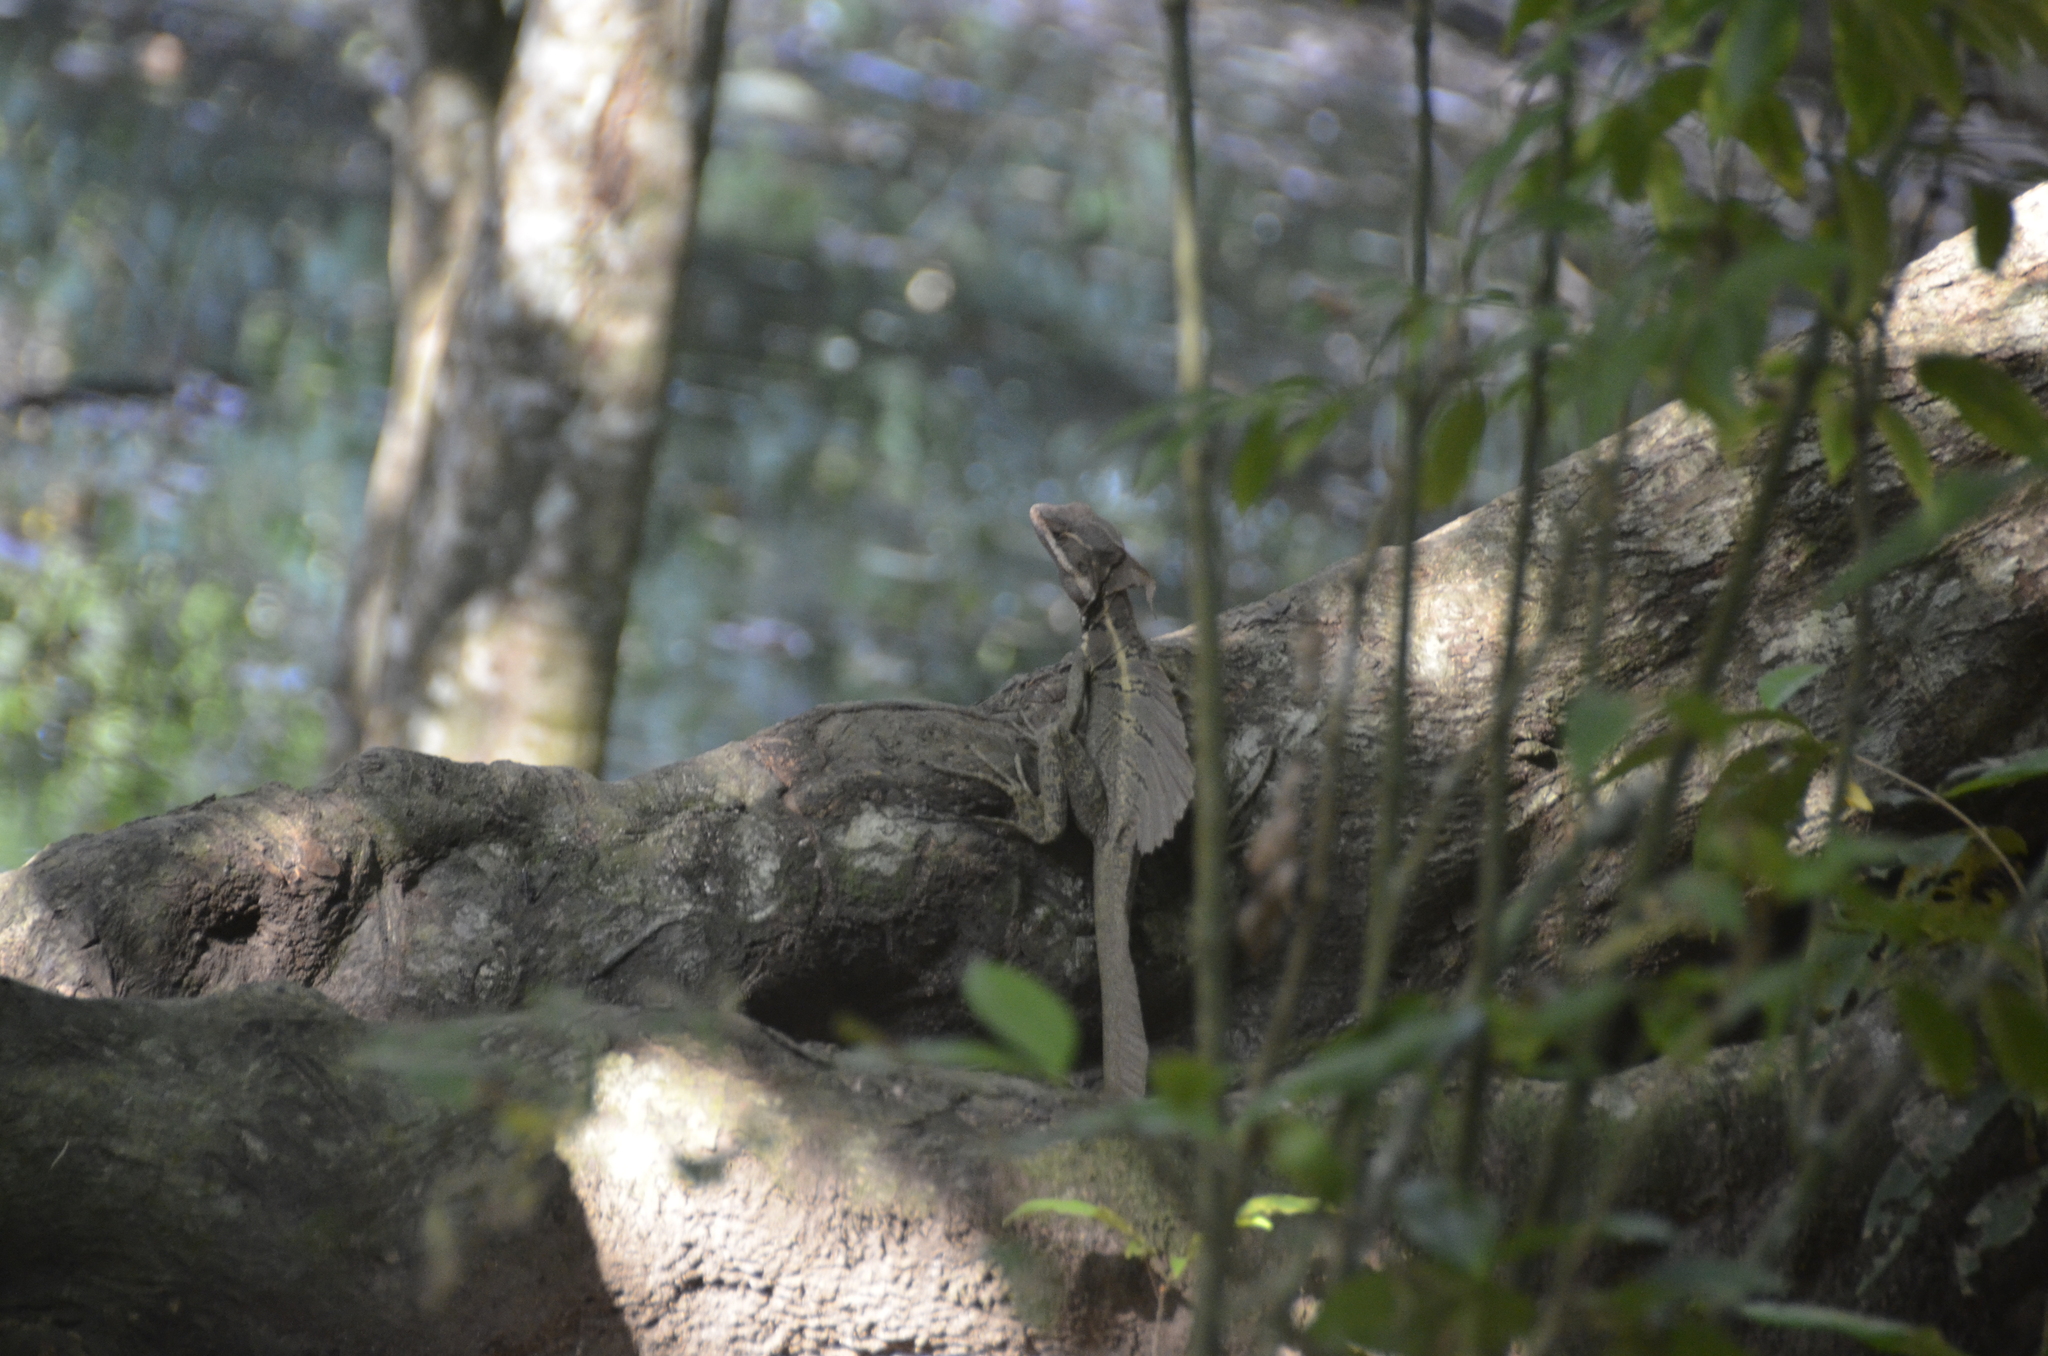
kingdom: Animalia
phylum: Chordata
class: Squamata
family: Corytophanidae
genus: Basiliscus
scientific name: Basiliscus basiliscus
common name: Common basilisk
